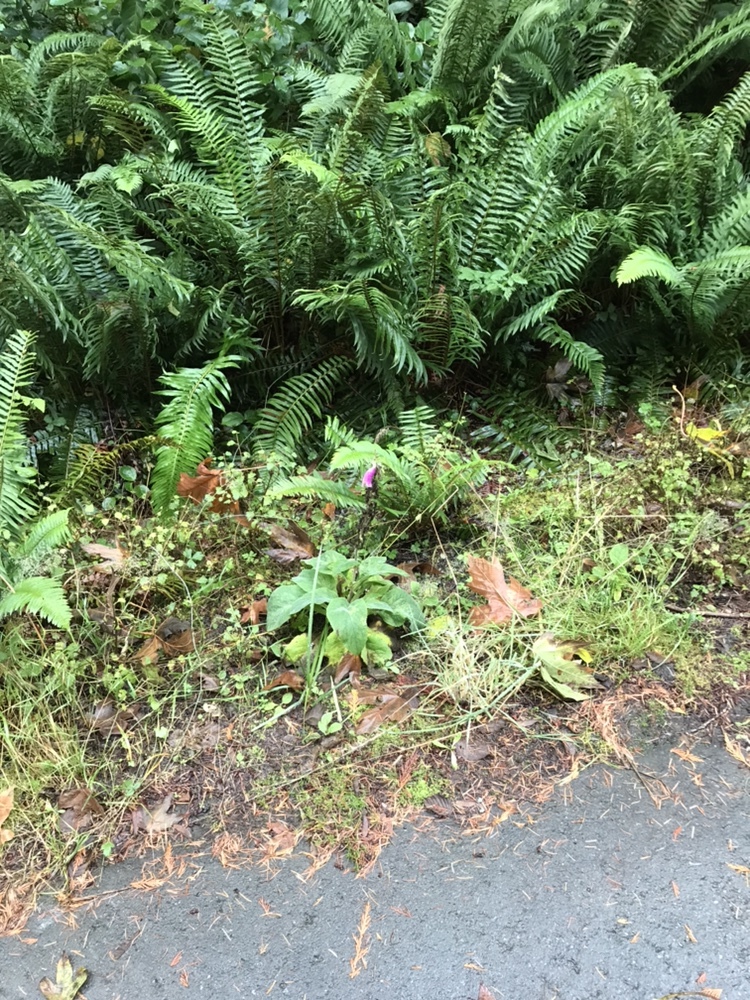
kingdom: Plantae
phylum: Tracheophyta
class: Magnoliopsida
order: Lamiales
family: Plantaginaceae
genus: Digitalis
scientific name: Digitalis purpurea
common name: Foxglove
